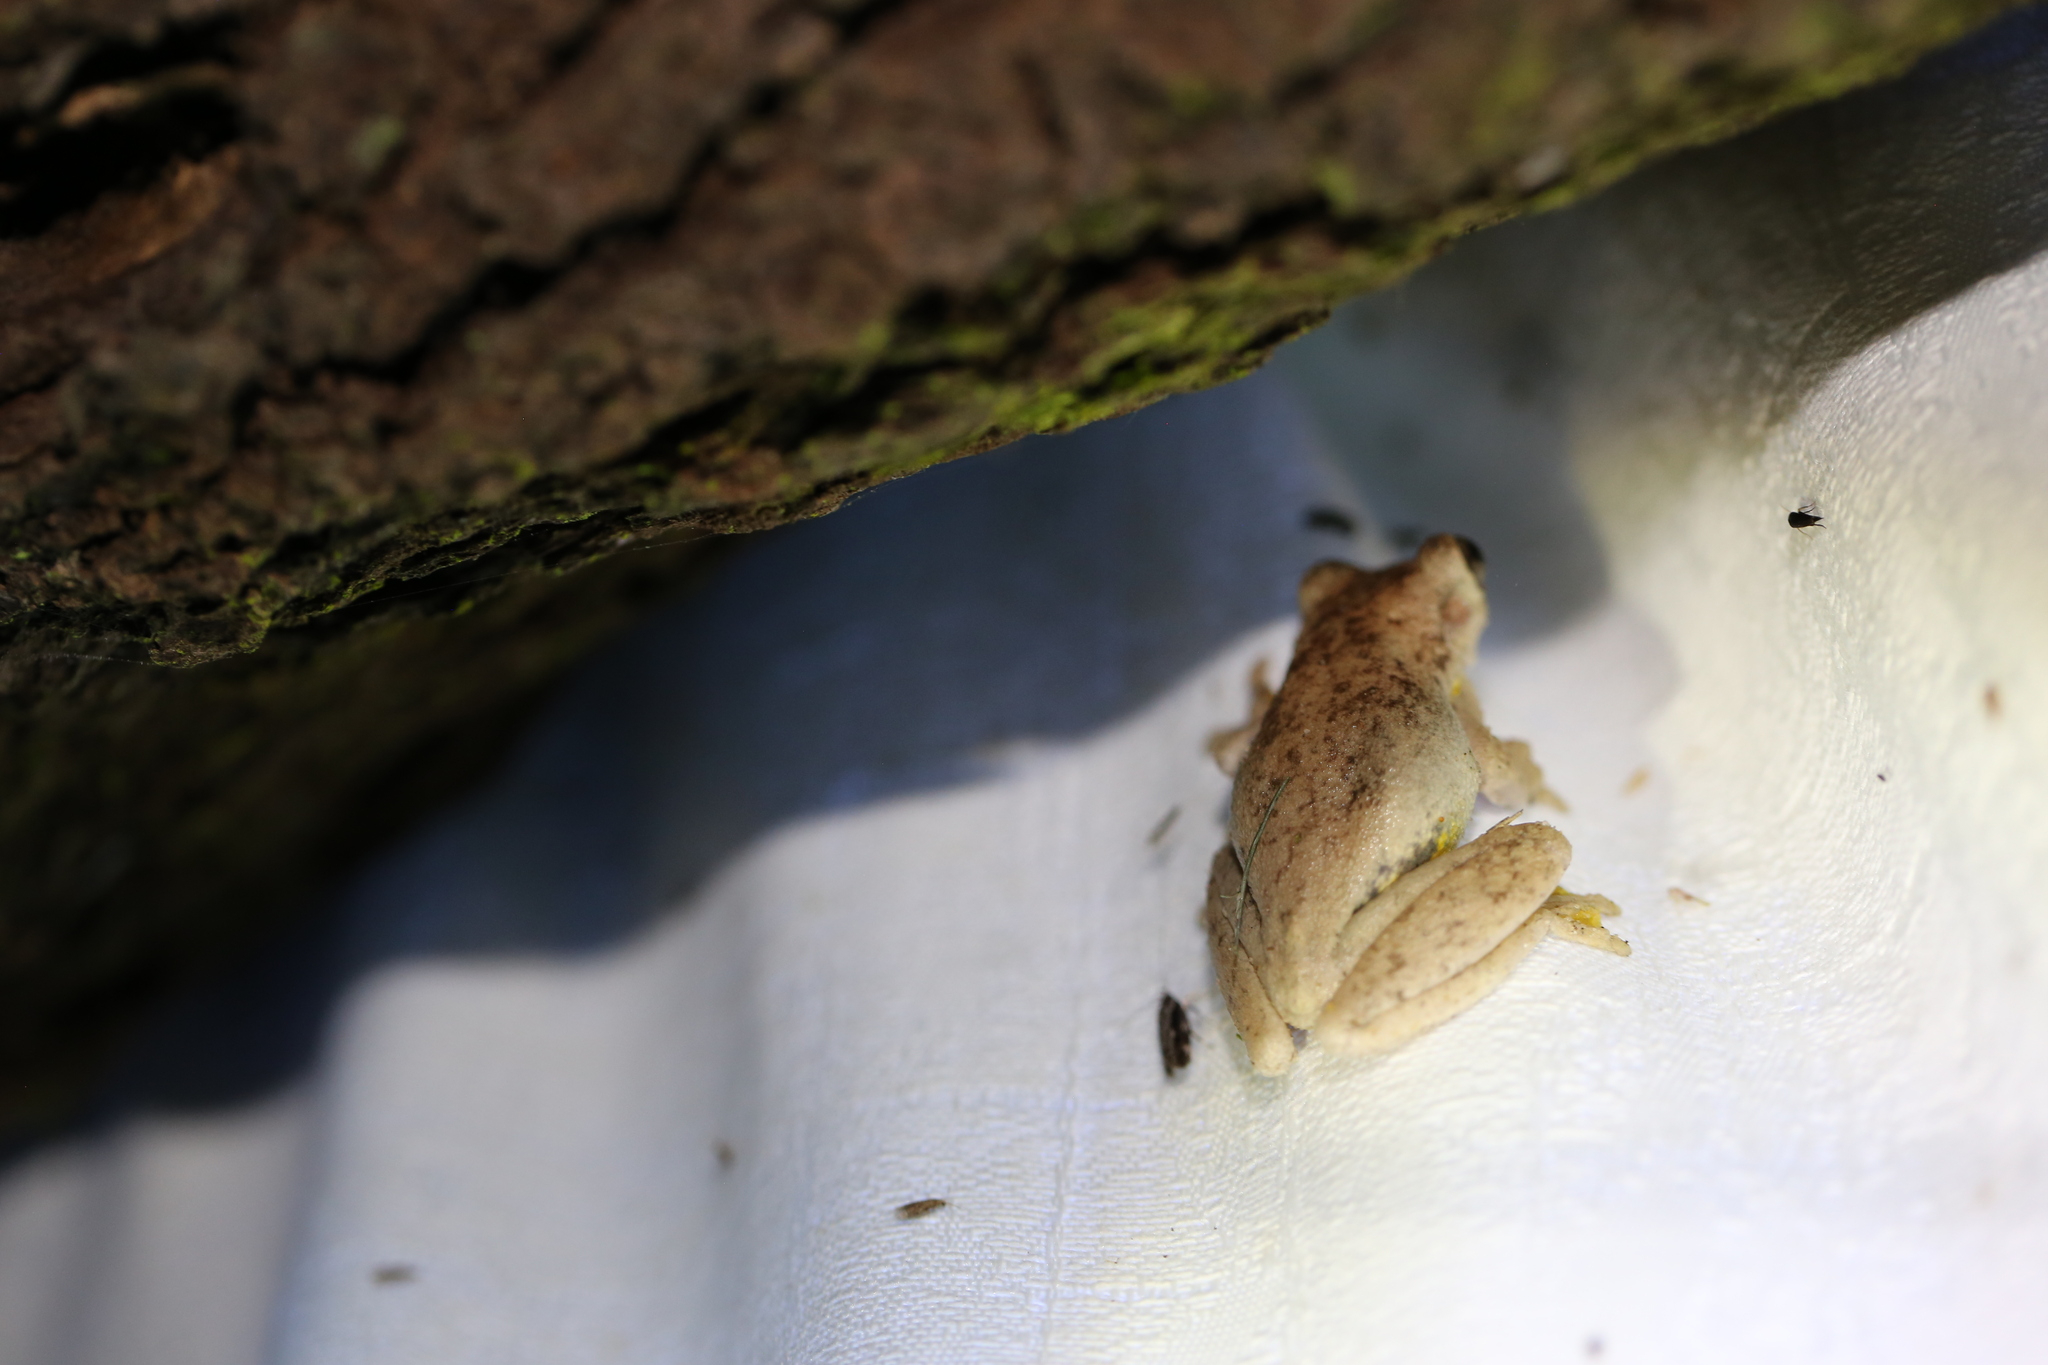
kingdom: Animalia
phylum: Chordata
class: Amphibia
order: Anura
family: Pelodryadidae
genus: Litoria
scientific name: Litoria peronii
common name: Emerald spotted treefrog
